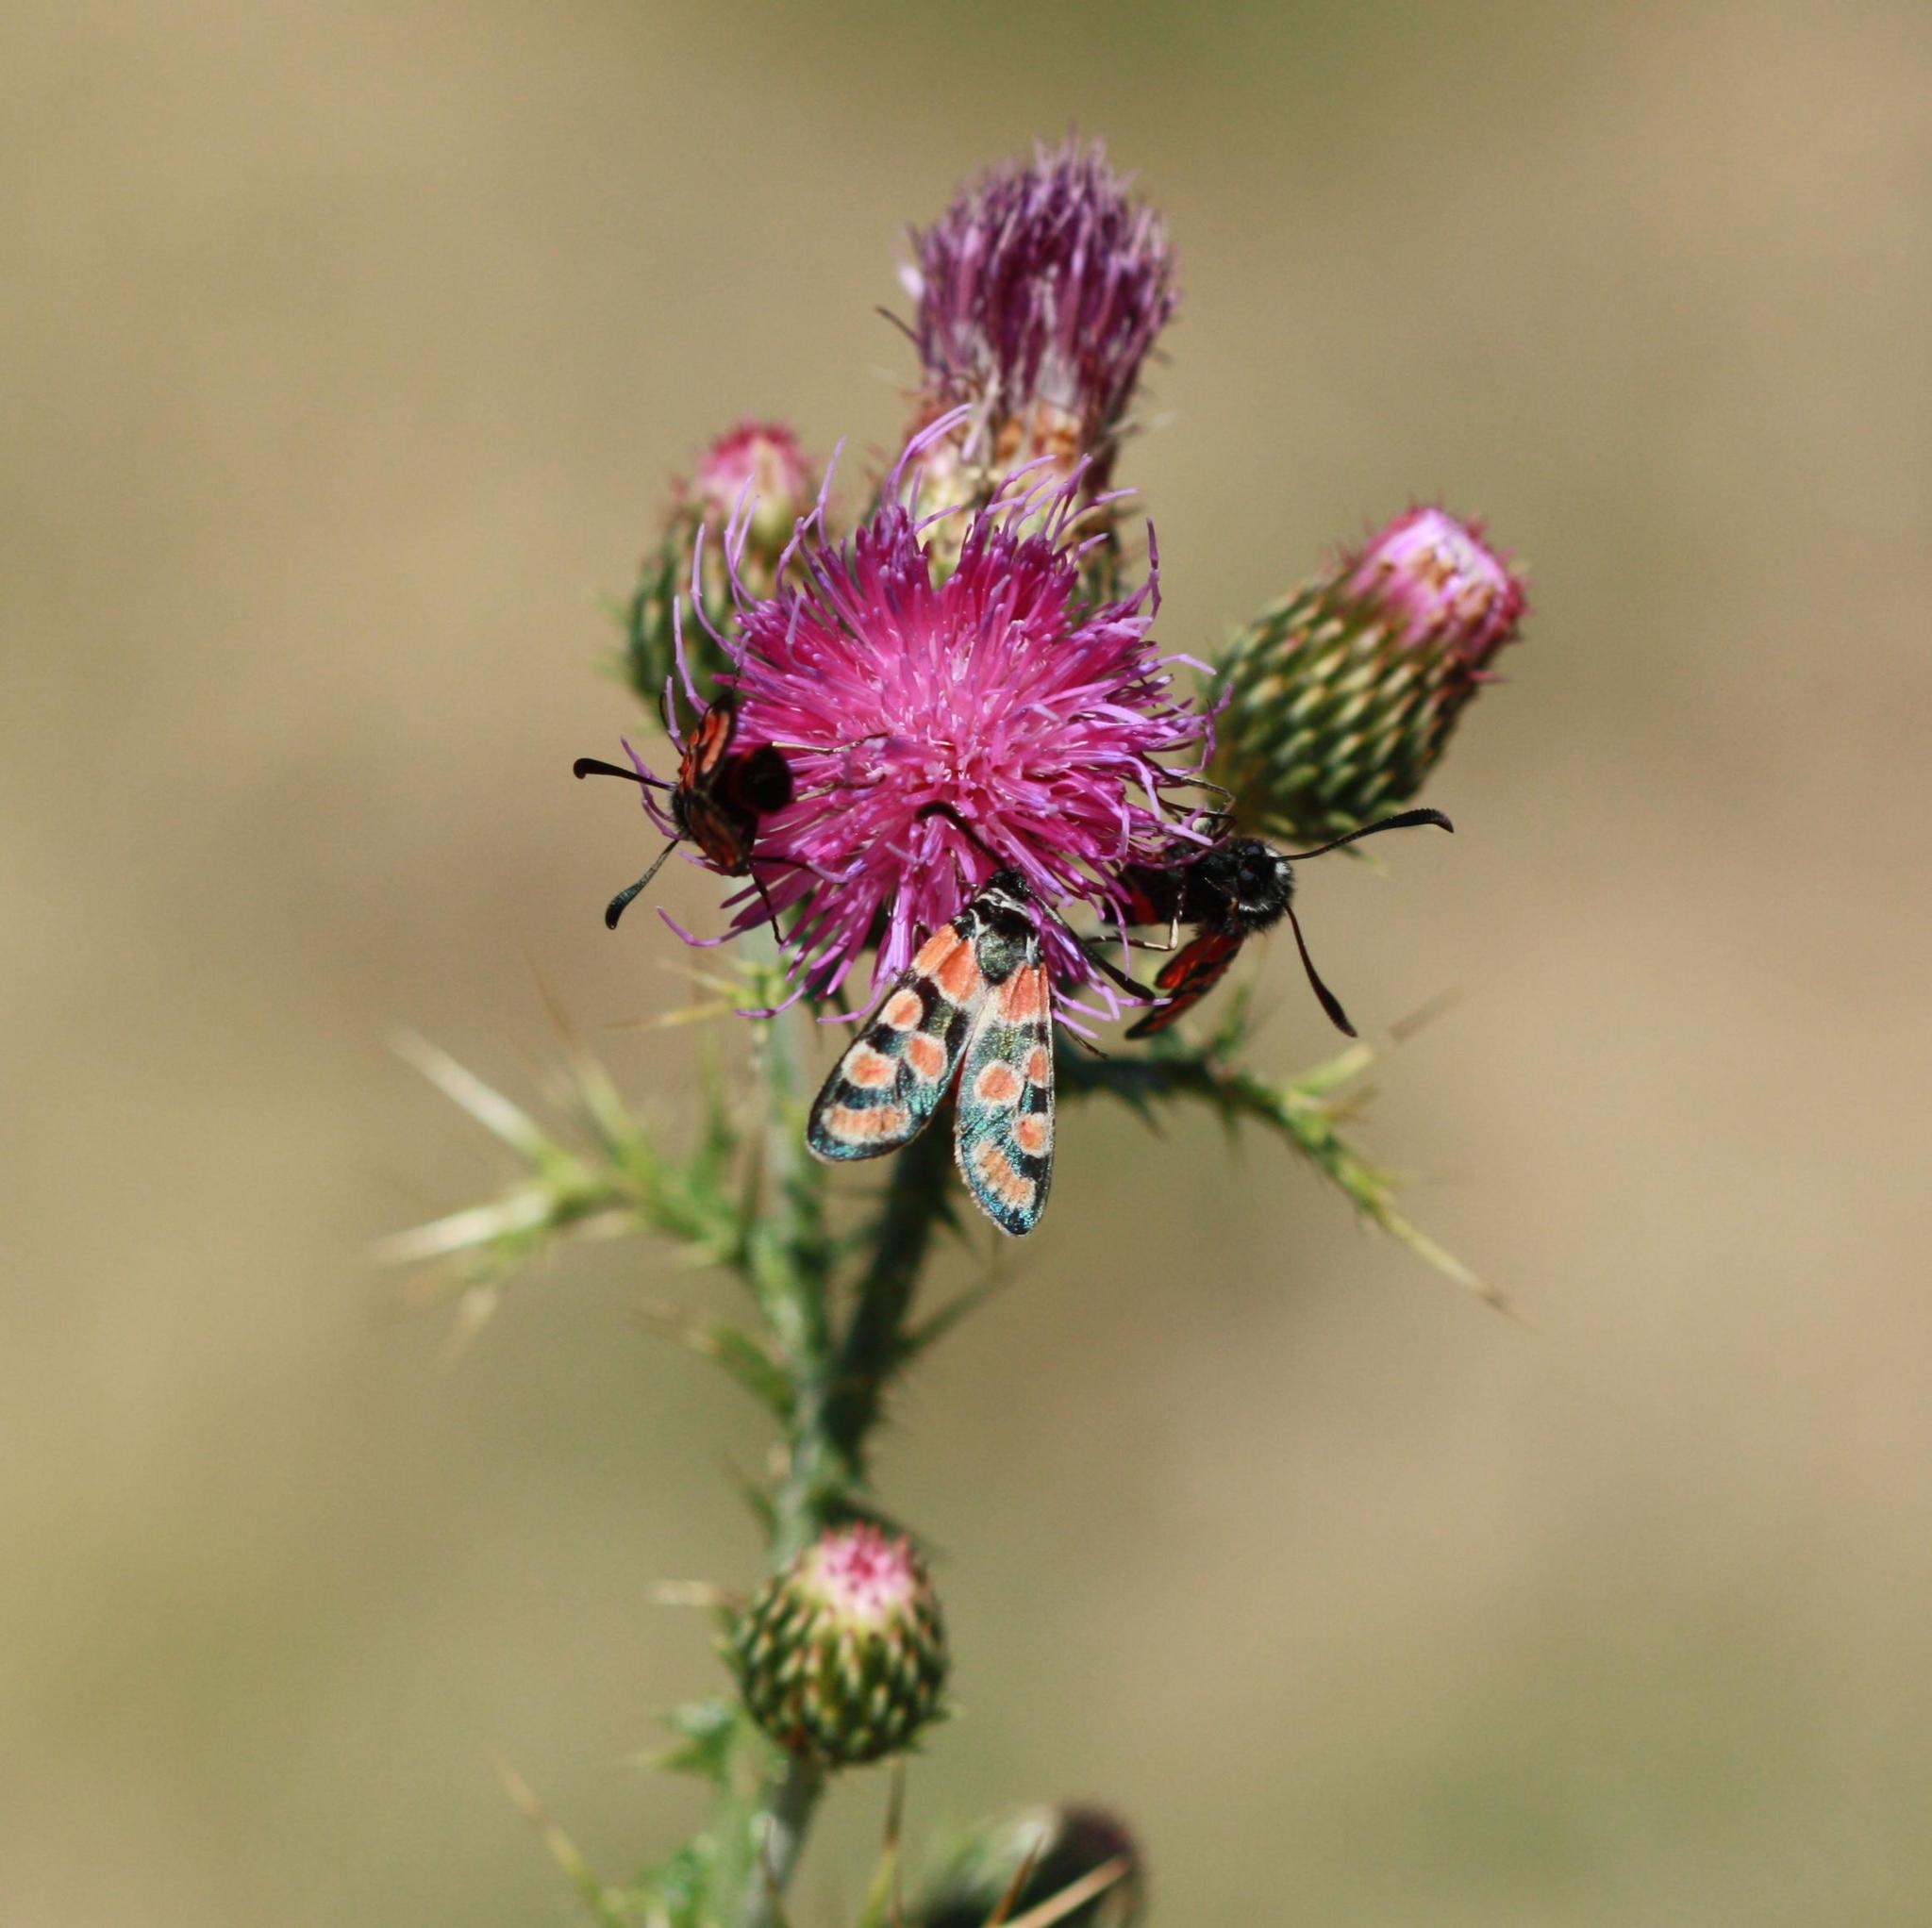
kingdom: Animalia
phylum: Arthropoda
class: Insecta
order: Lepidoptera
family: Zygaenidae
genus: Zygaena
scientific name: Zygaena carniolica
